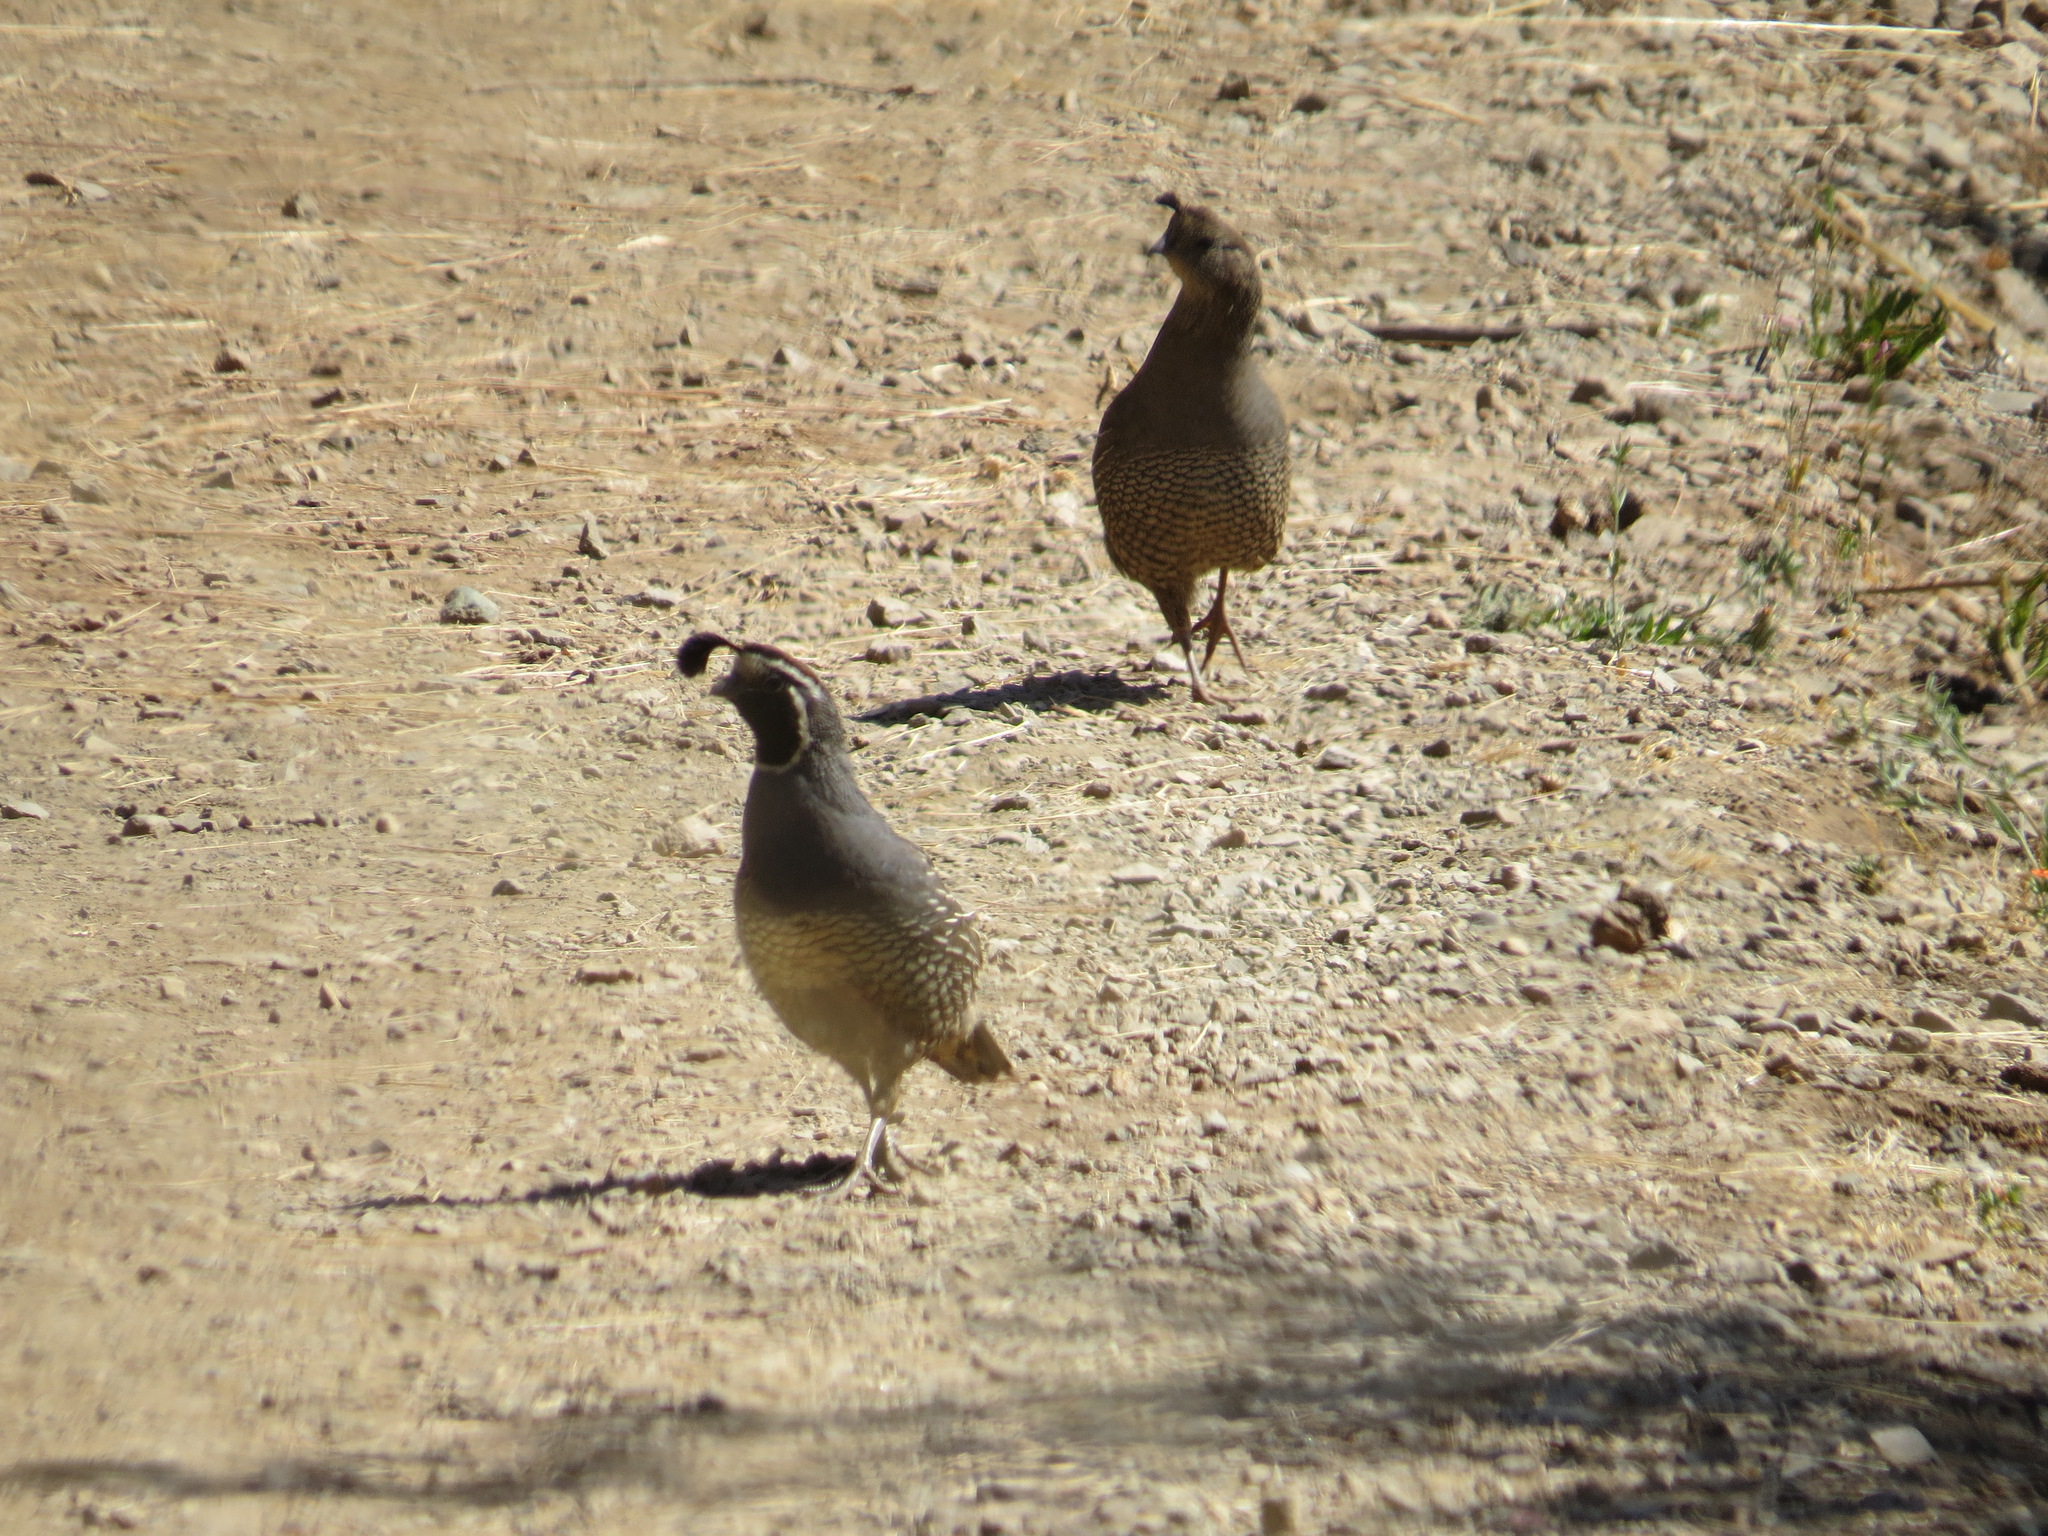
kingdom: Animalia
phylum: Chordata
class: Aves
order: Galliformes
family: Odontophoridae
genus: Callipepla
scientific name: Callipepla californica
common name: California quail
